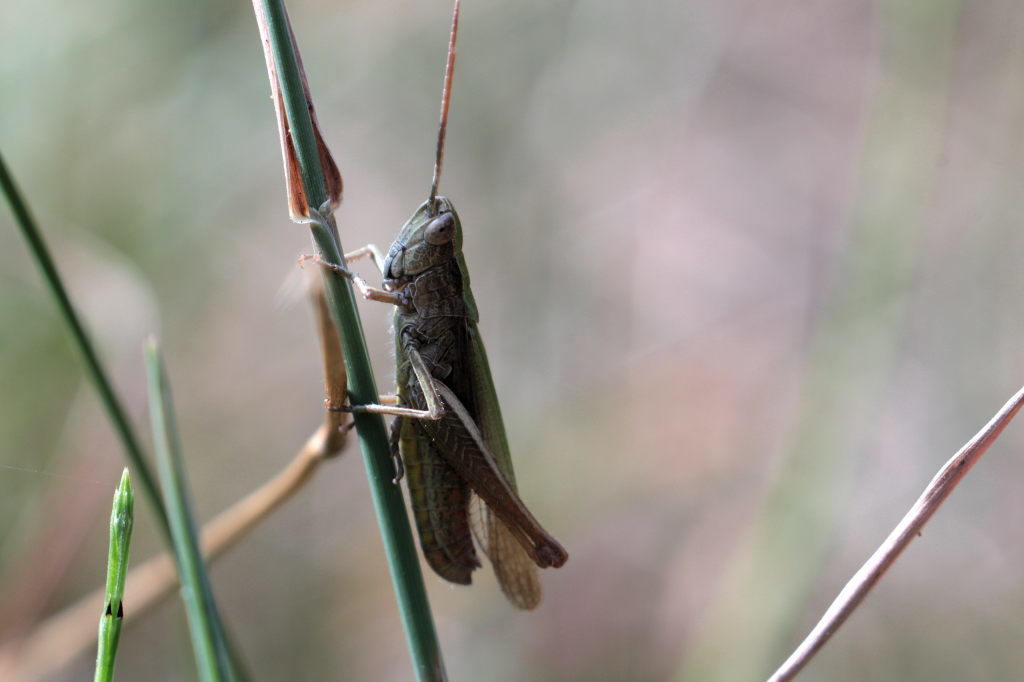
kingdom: Animalia
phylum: Arthropoda
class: Insecta
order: Orthoptera
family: Acrididae
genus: Chorthippus
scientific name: Chorthippus dorsatus
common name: Steppe grasshopper
